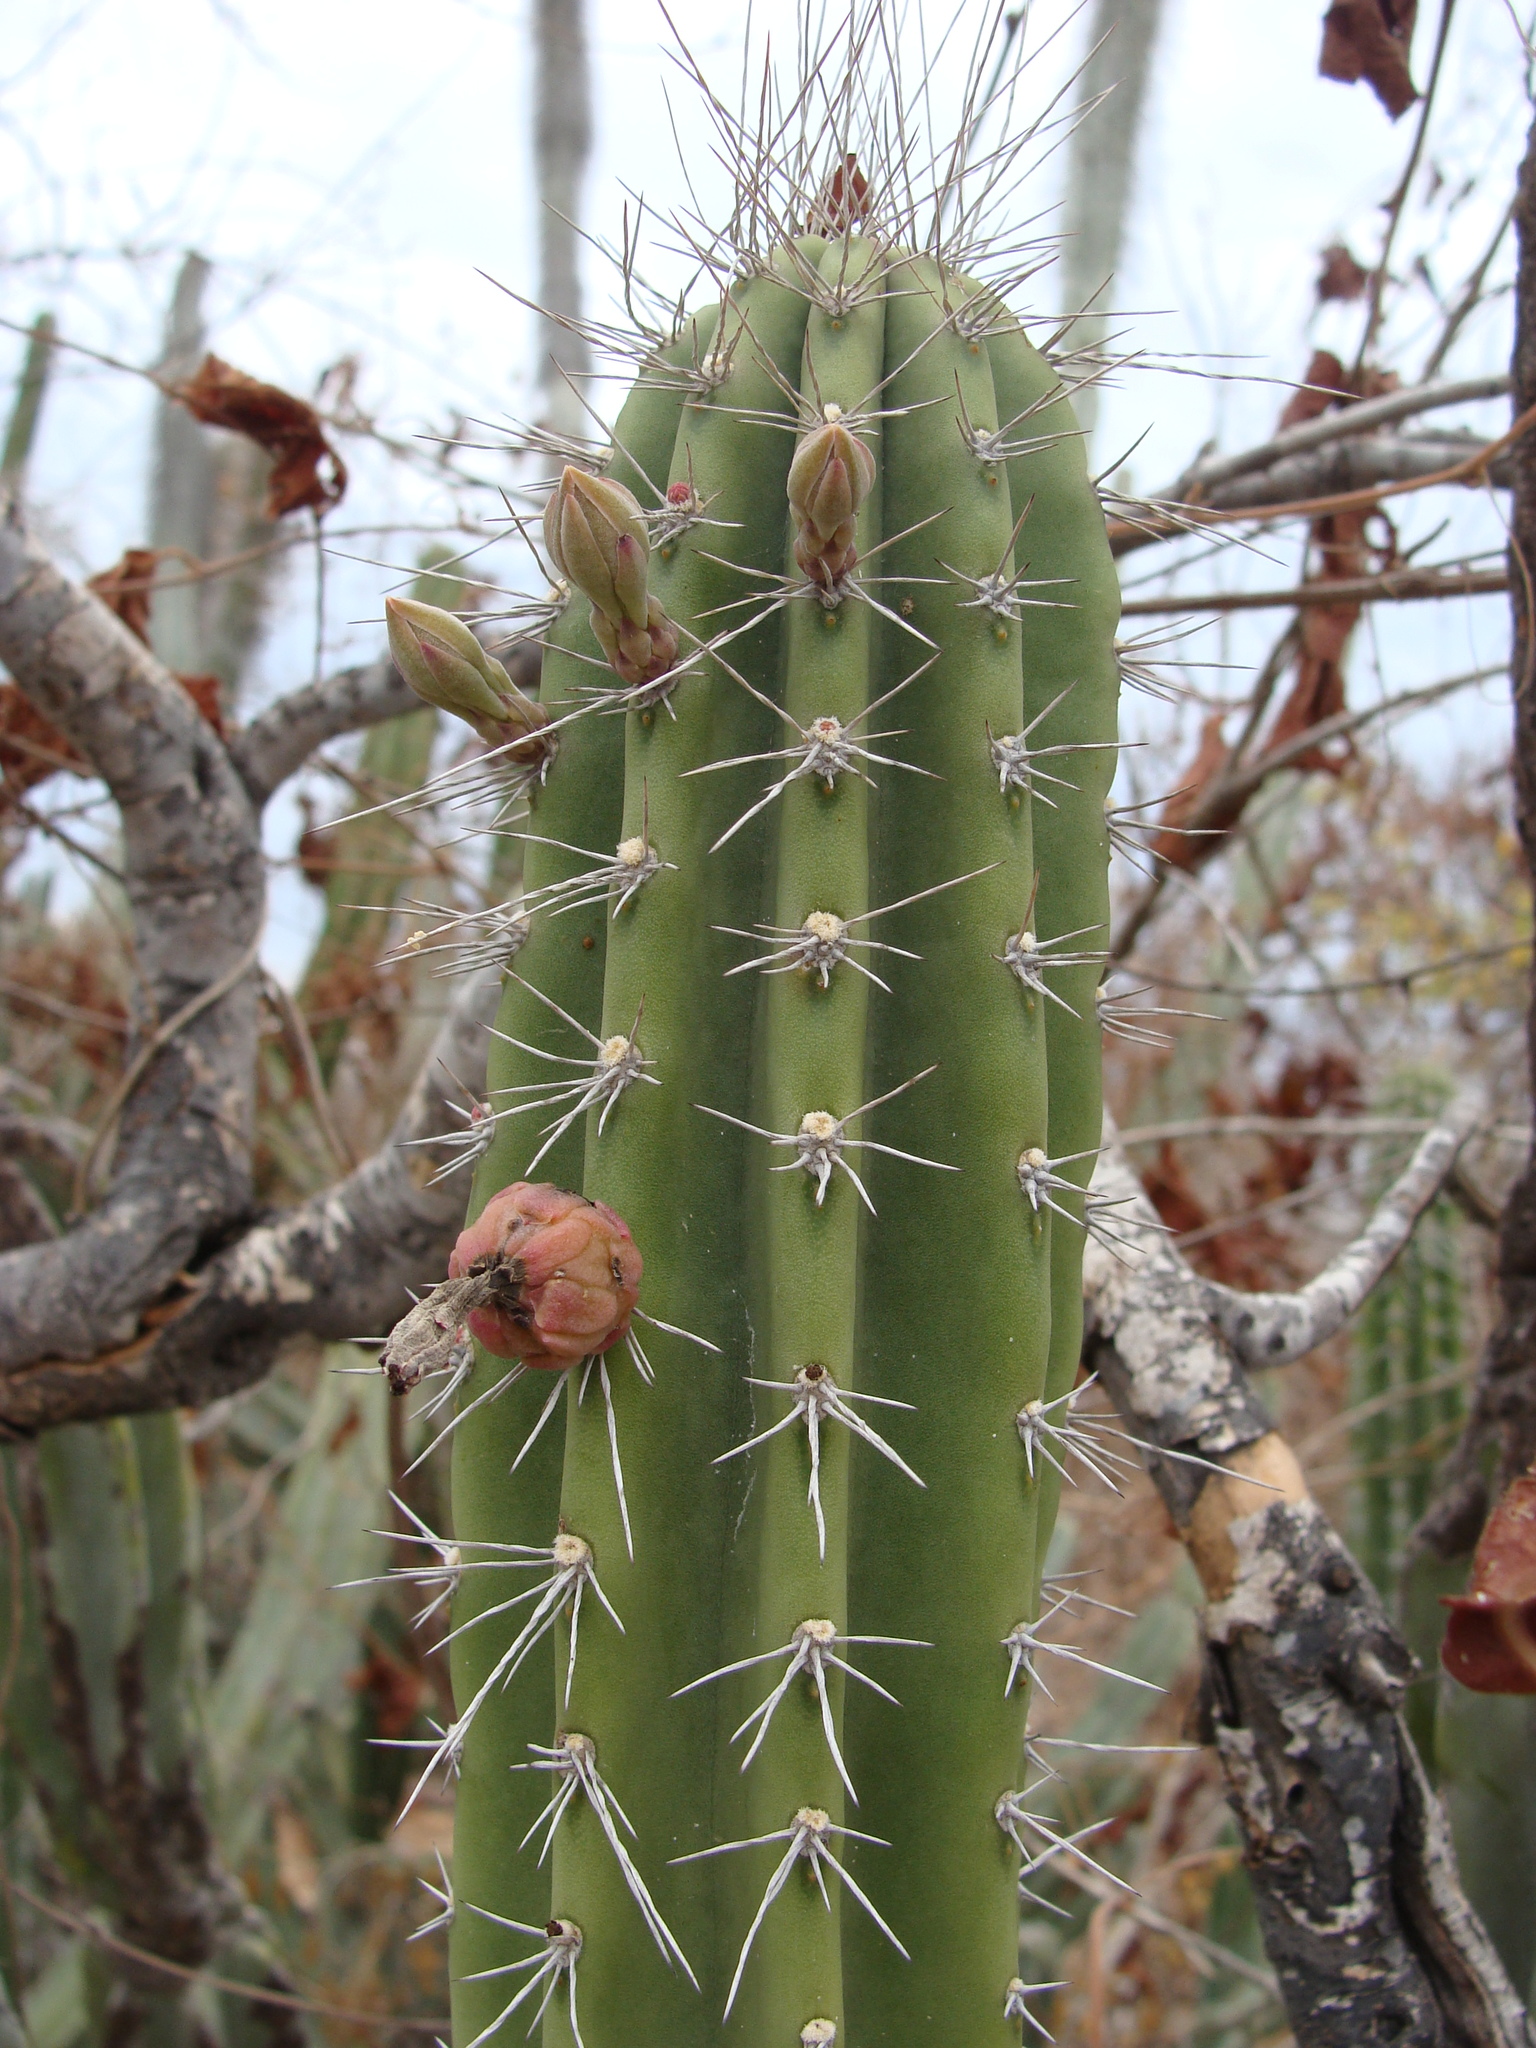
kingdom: Plantae
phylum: Tracheophyta
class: Magnoliopsida
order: Caryophyllales
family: Cactaceae
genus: Pachycereus
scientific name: Pachycereus schottii
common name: Senita cactus
